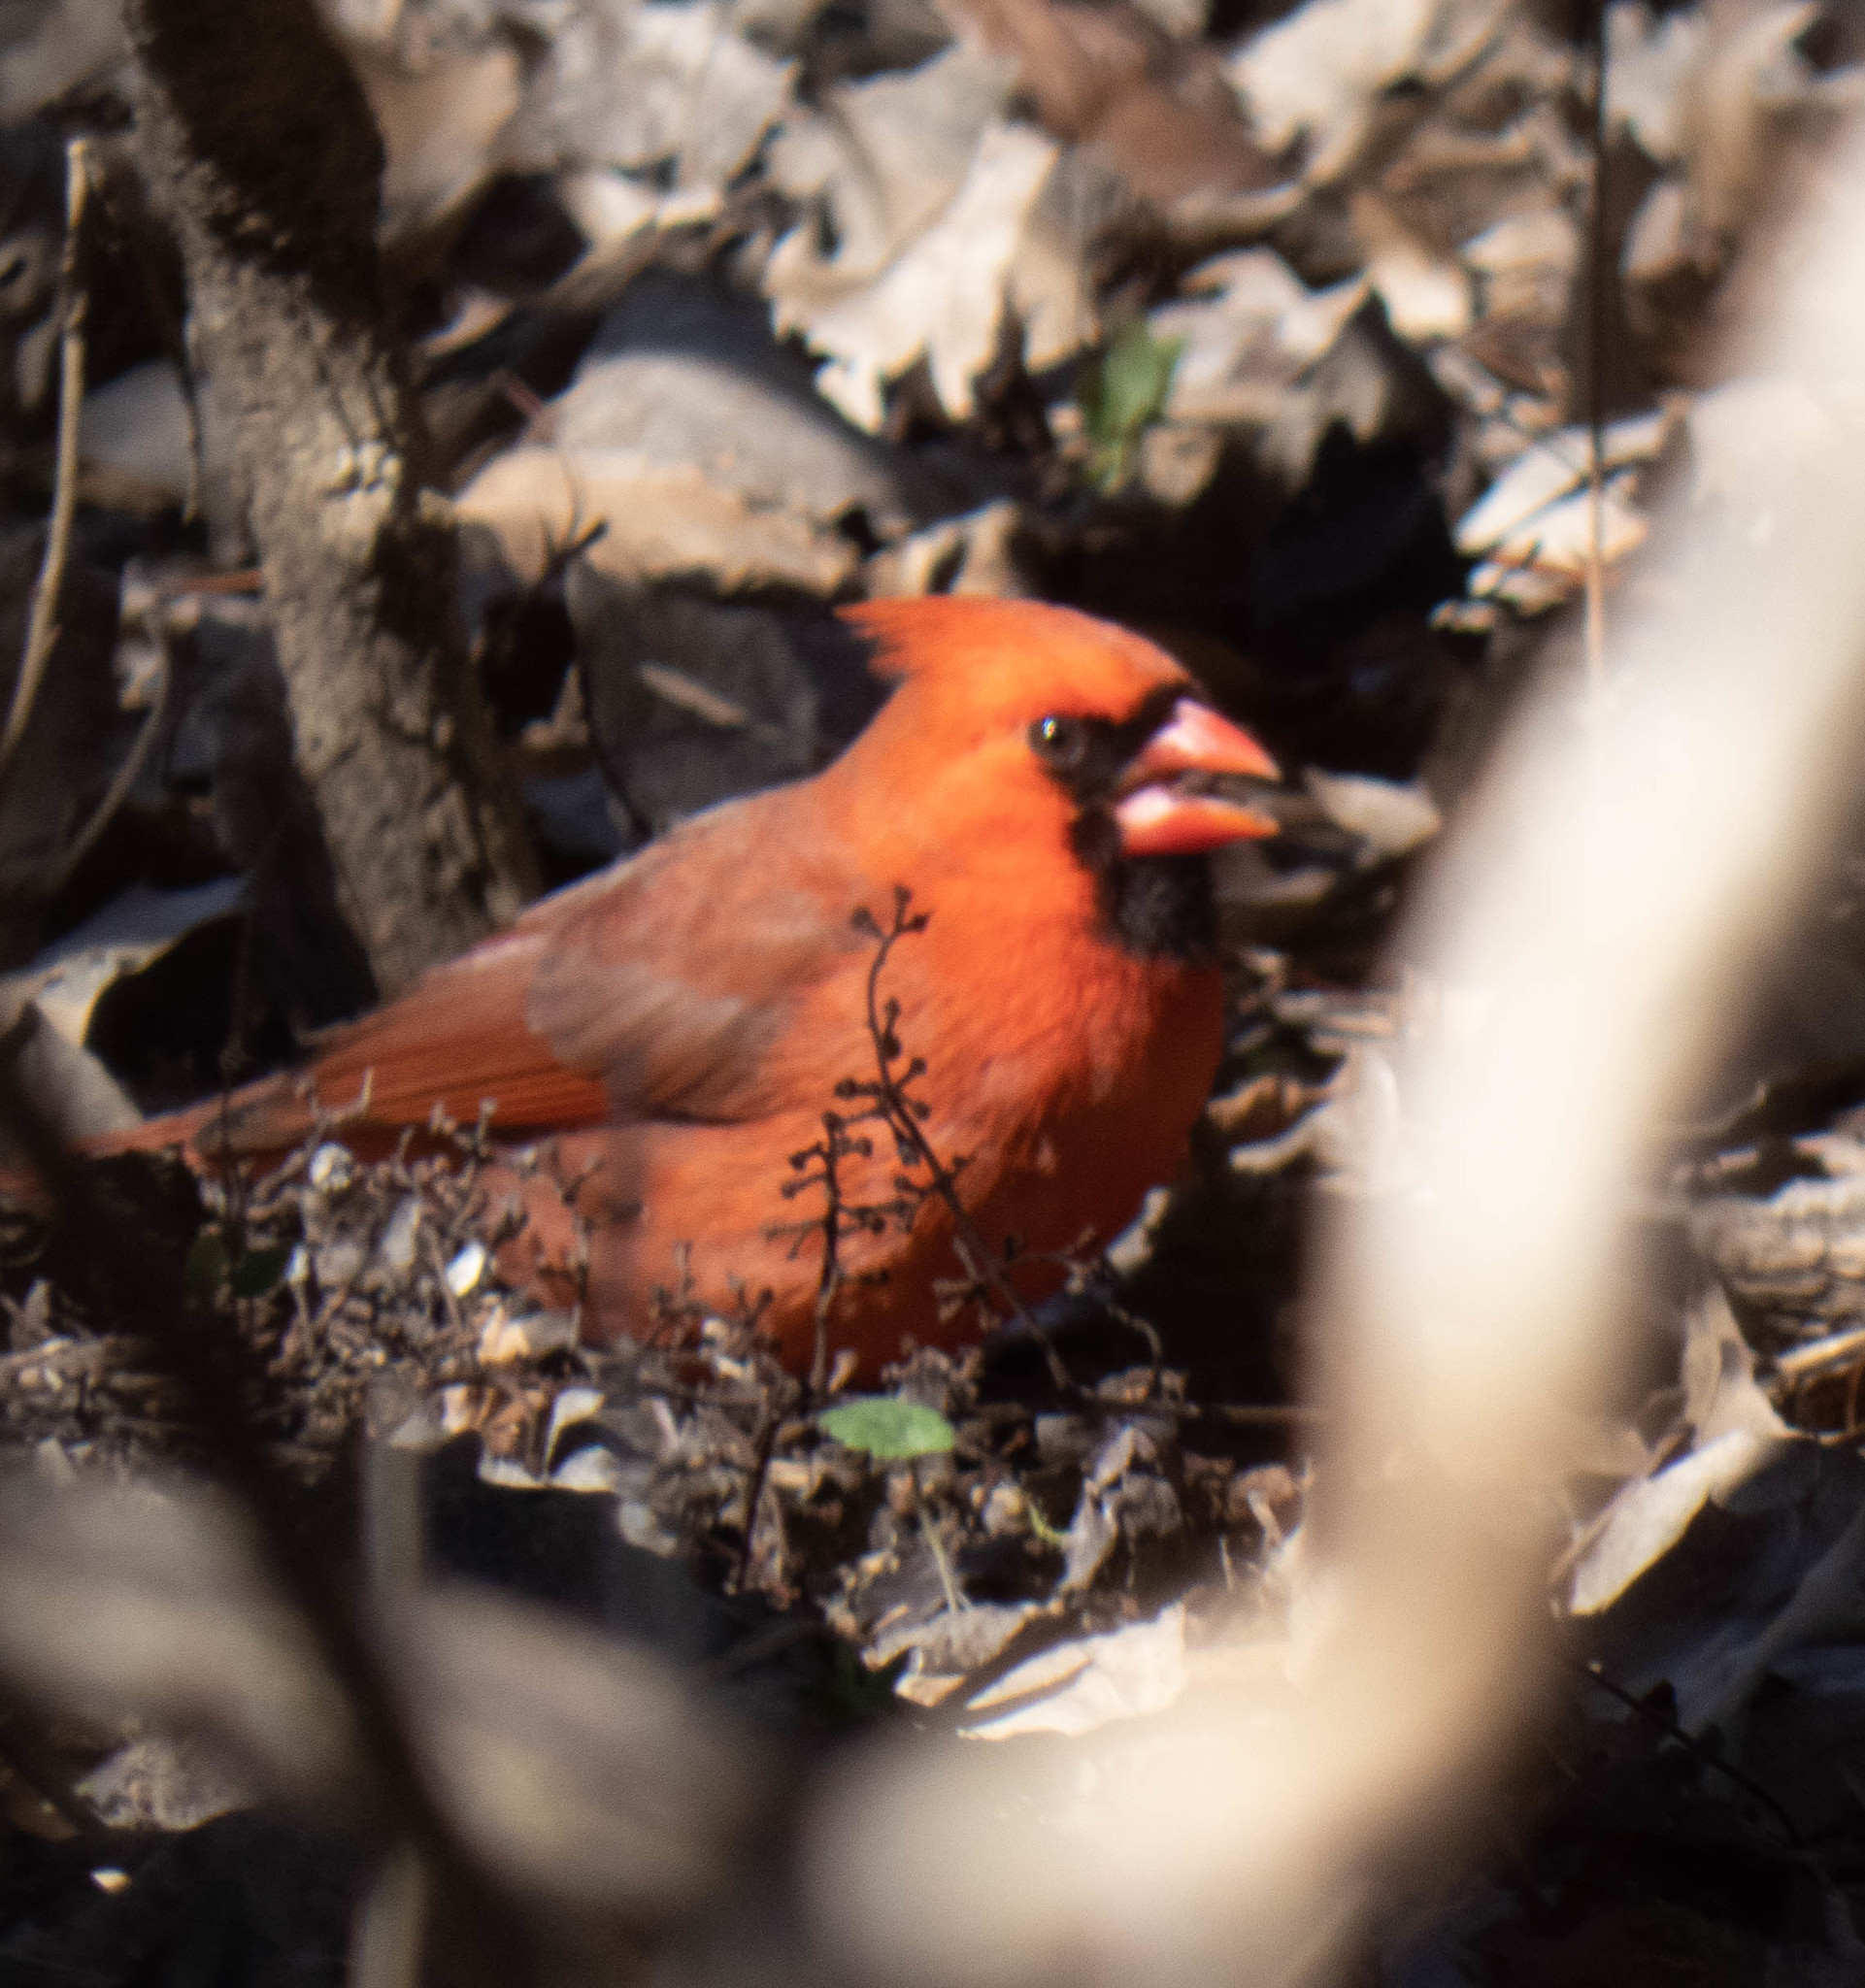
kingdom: Animalia
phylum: Chordata
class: Aves
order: Passeriformes
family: Cardinalidae
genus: Cardinalis
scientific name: Cardinalis cardinalis
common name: Northern cardinal
